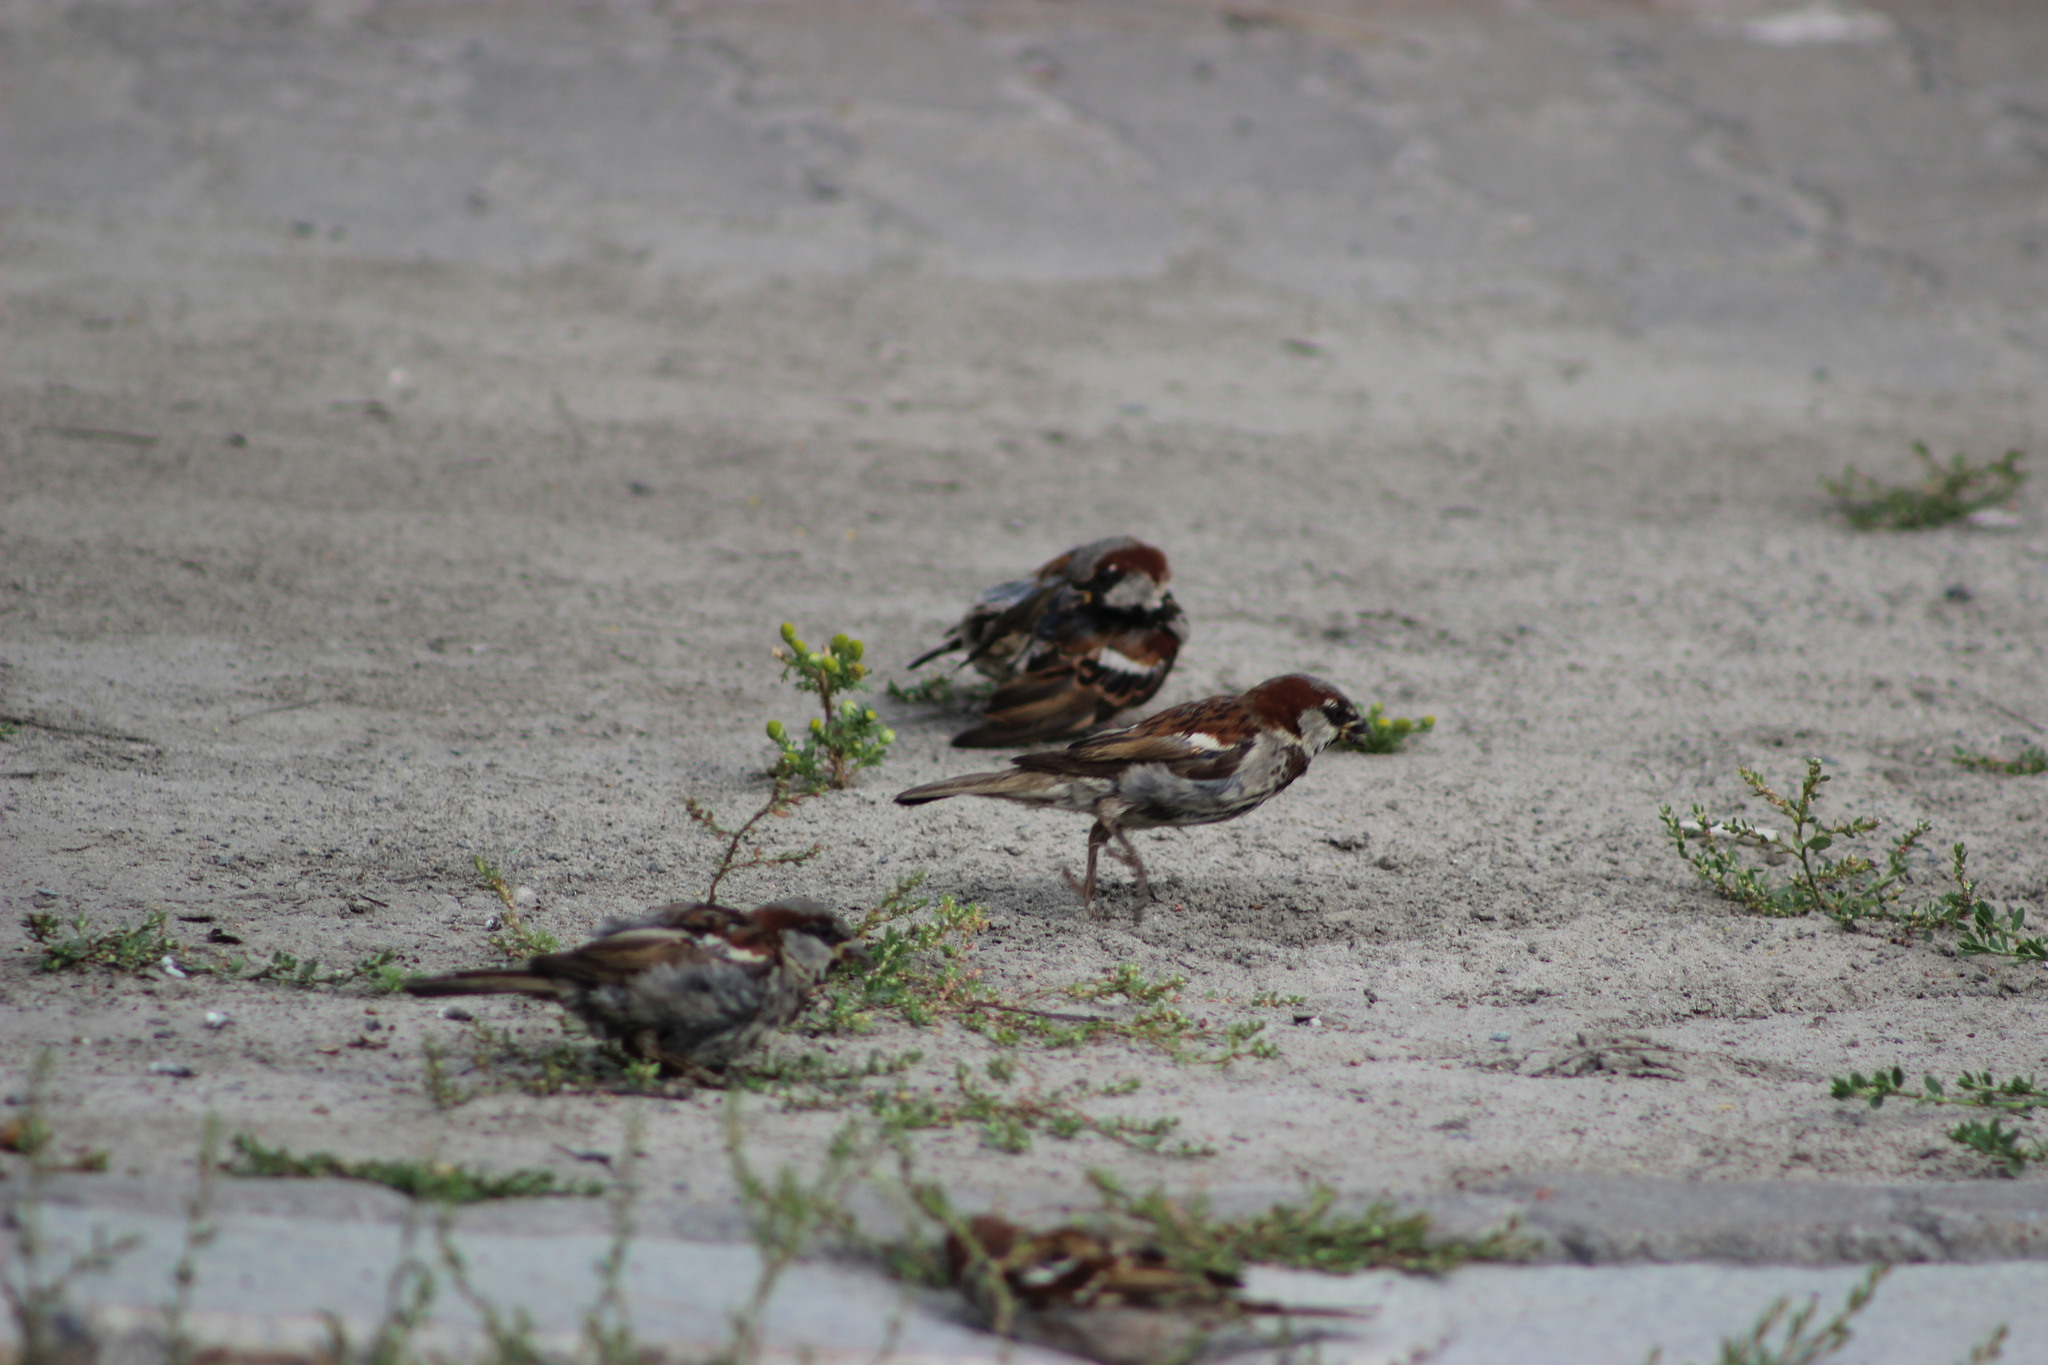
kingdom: Animalia
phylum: Chordata
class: Aves
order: Passeriformes
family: Passeridae
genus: Passer
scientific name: Passer domesticus
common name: House sparrow
